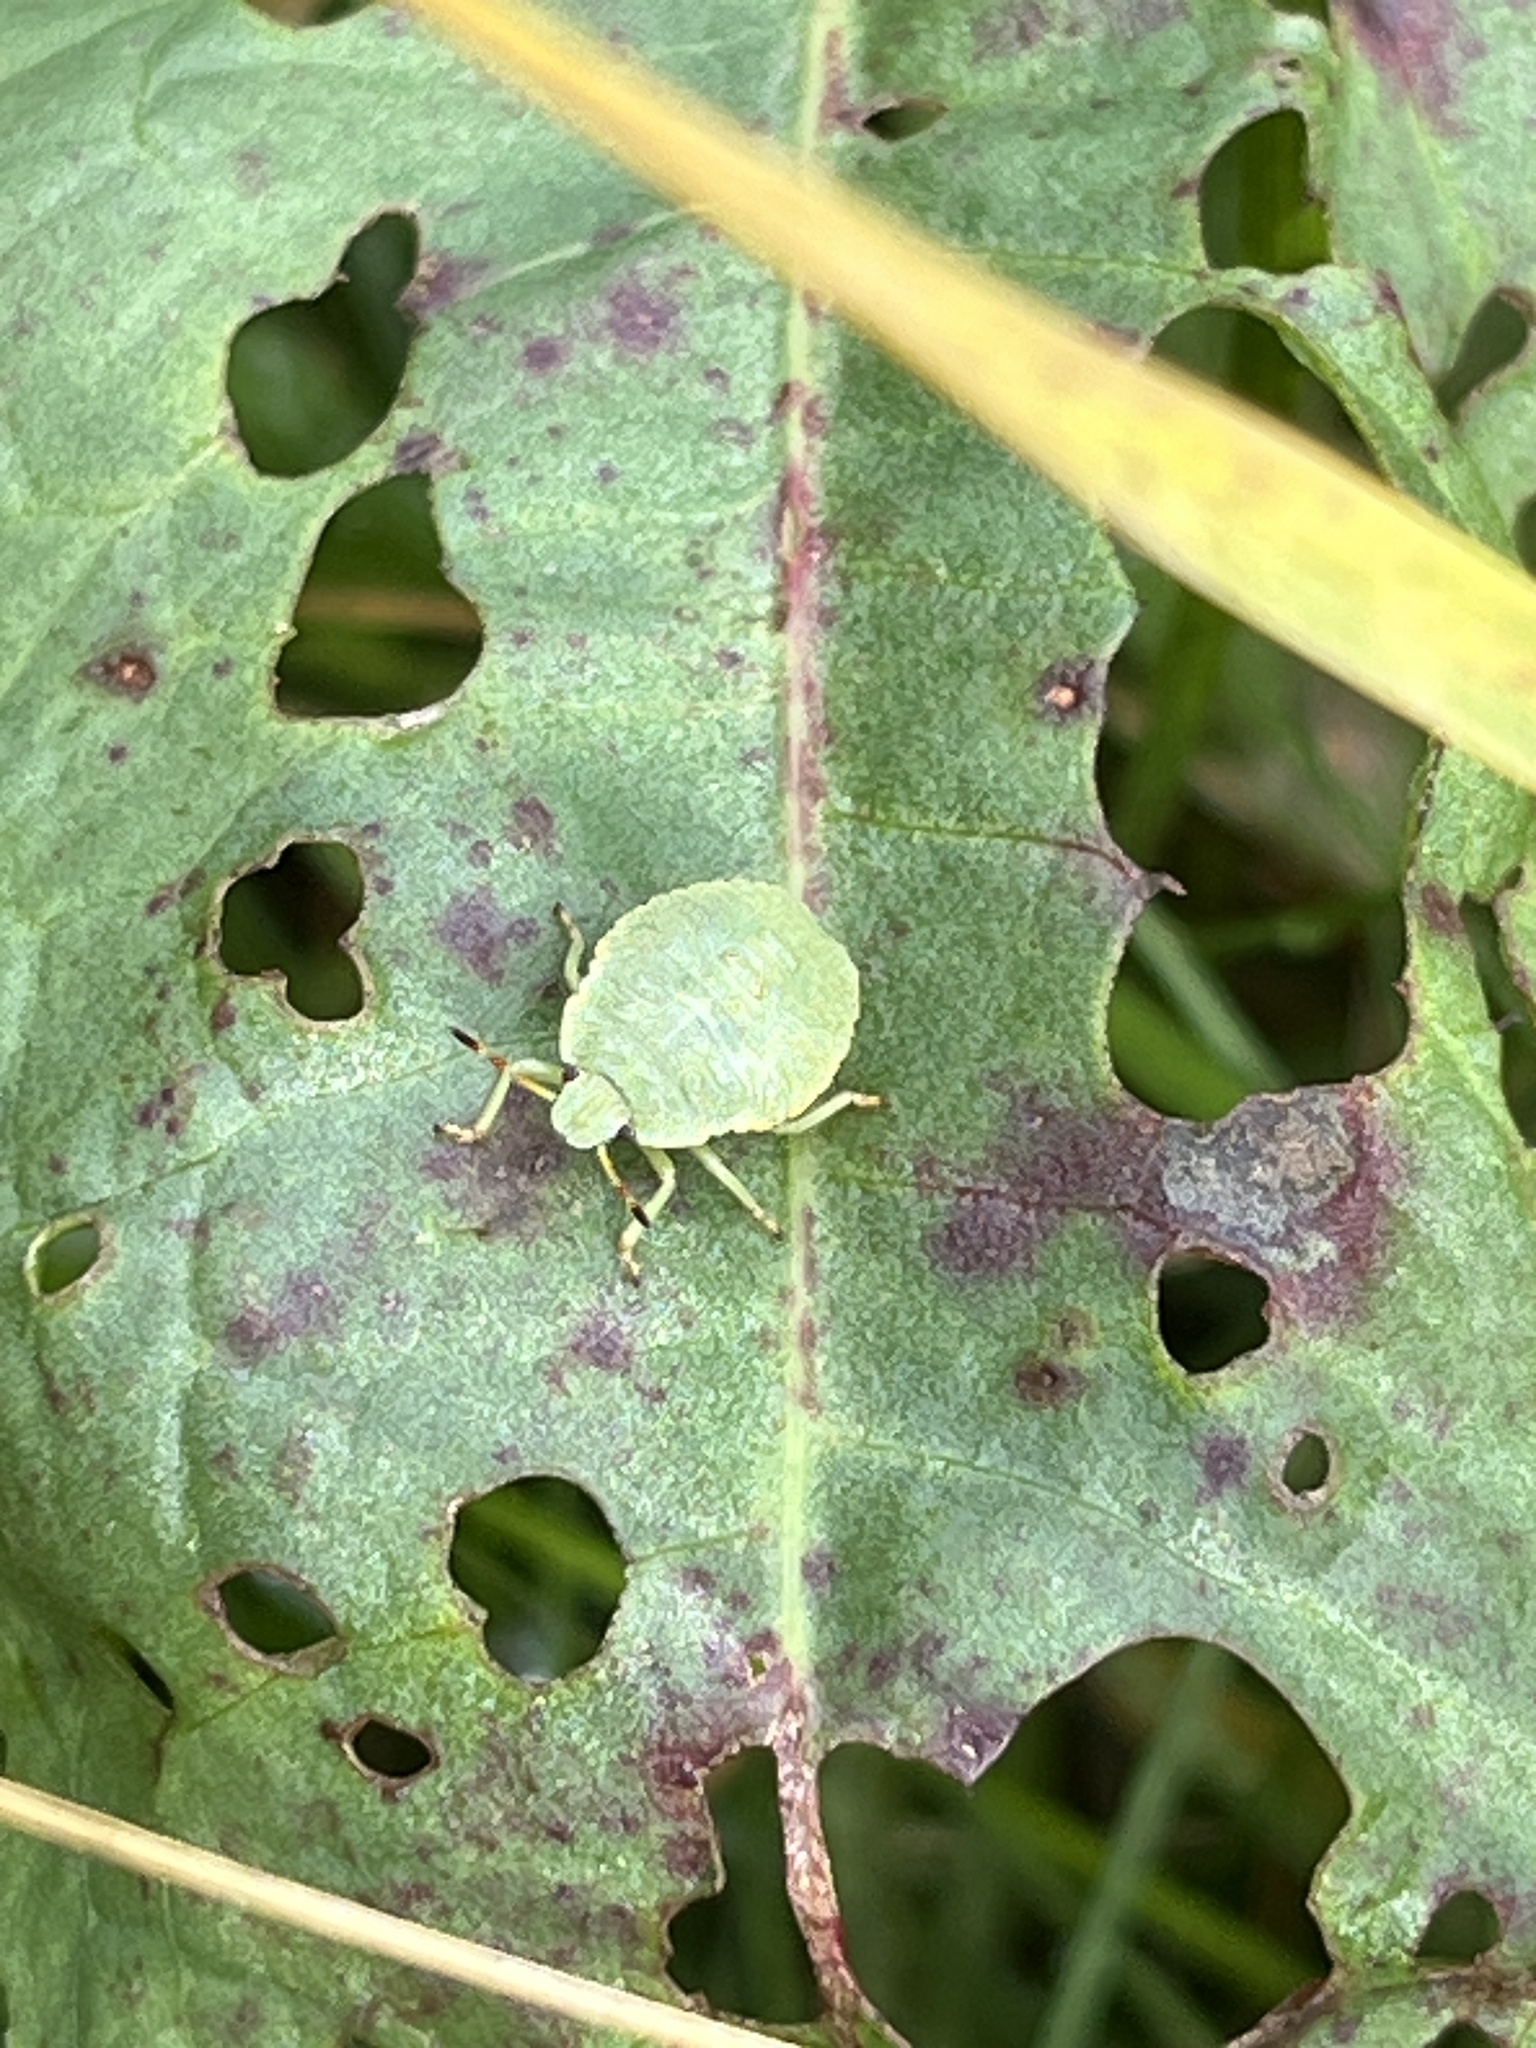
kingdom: Animalia
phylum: Arthropoda
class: Insecta
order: Hemiptera
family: Pentatomidae
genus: Palomena
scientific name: Palomena prasina
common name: Green shieldbug
